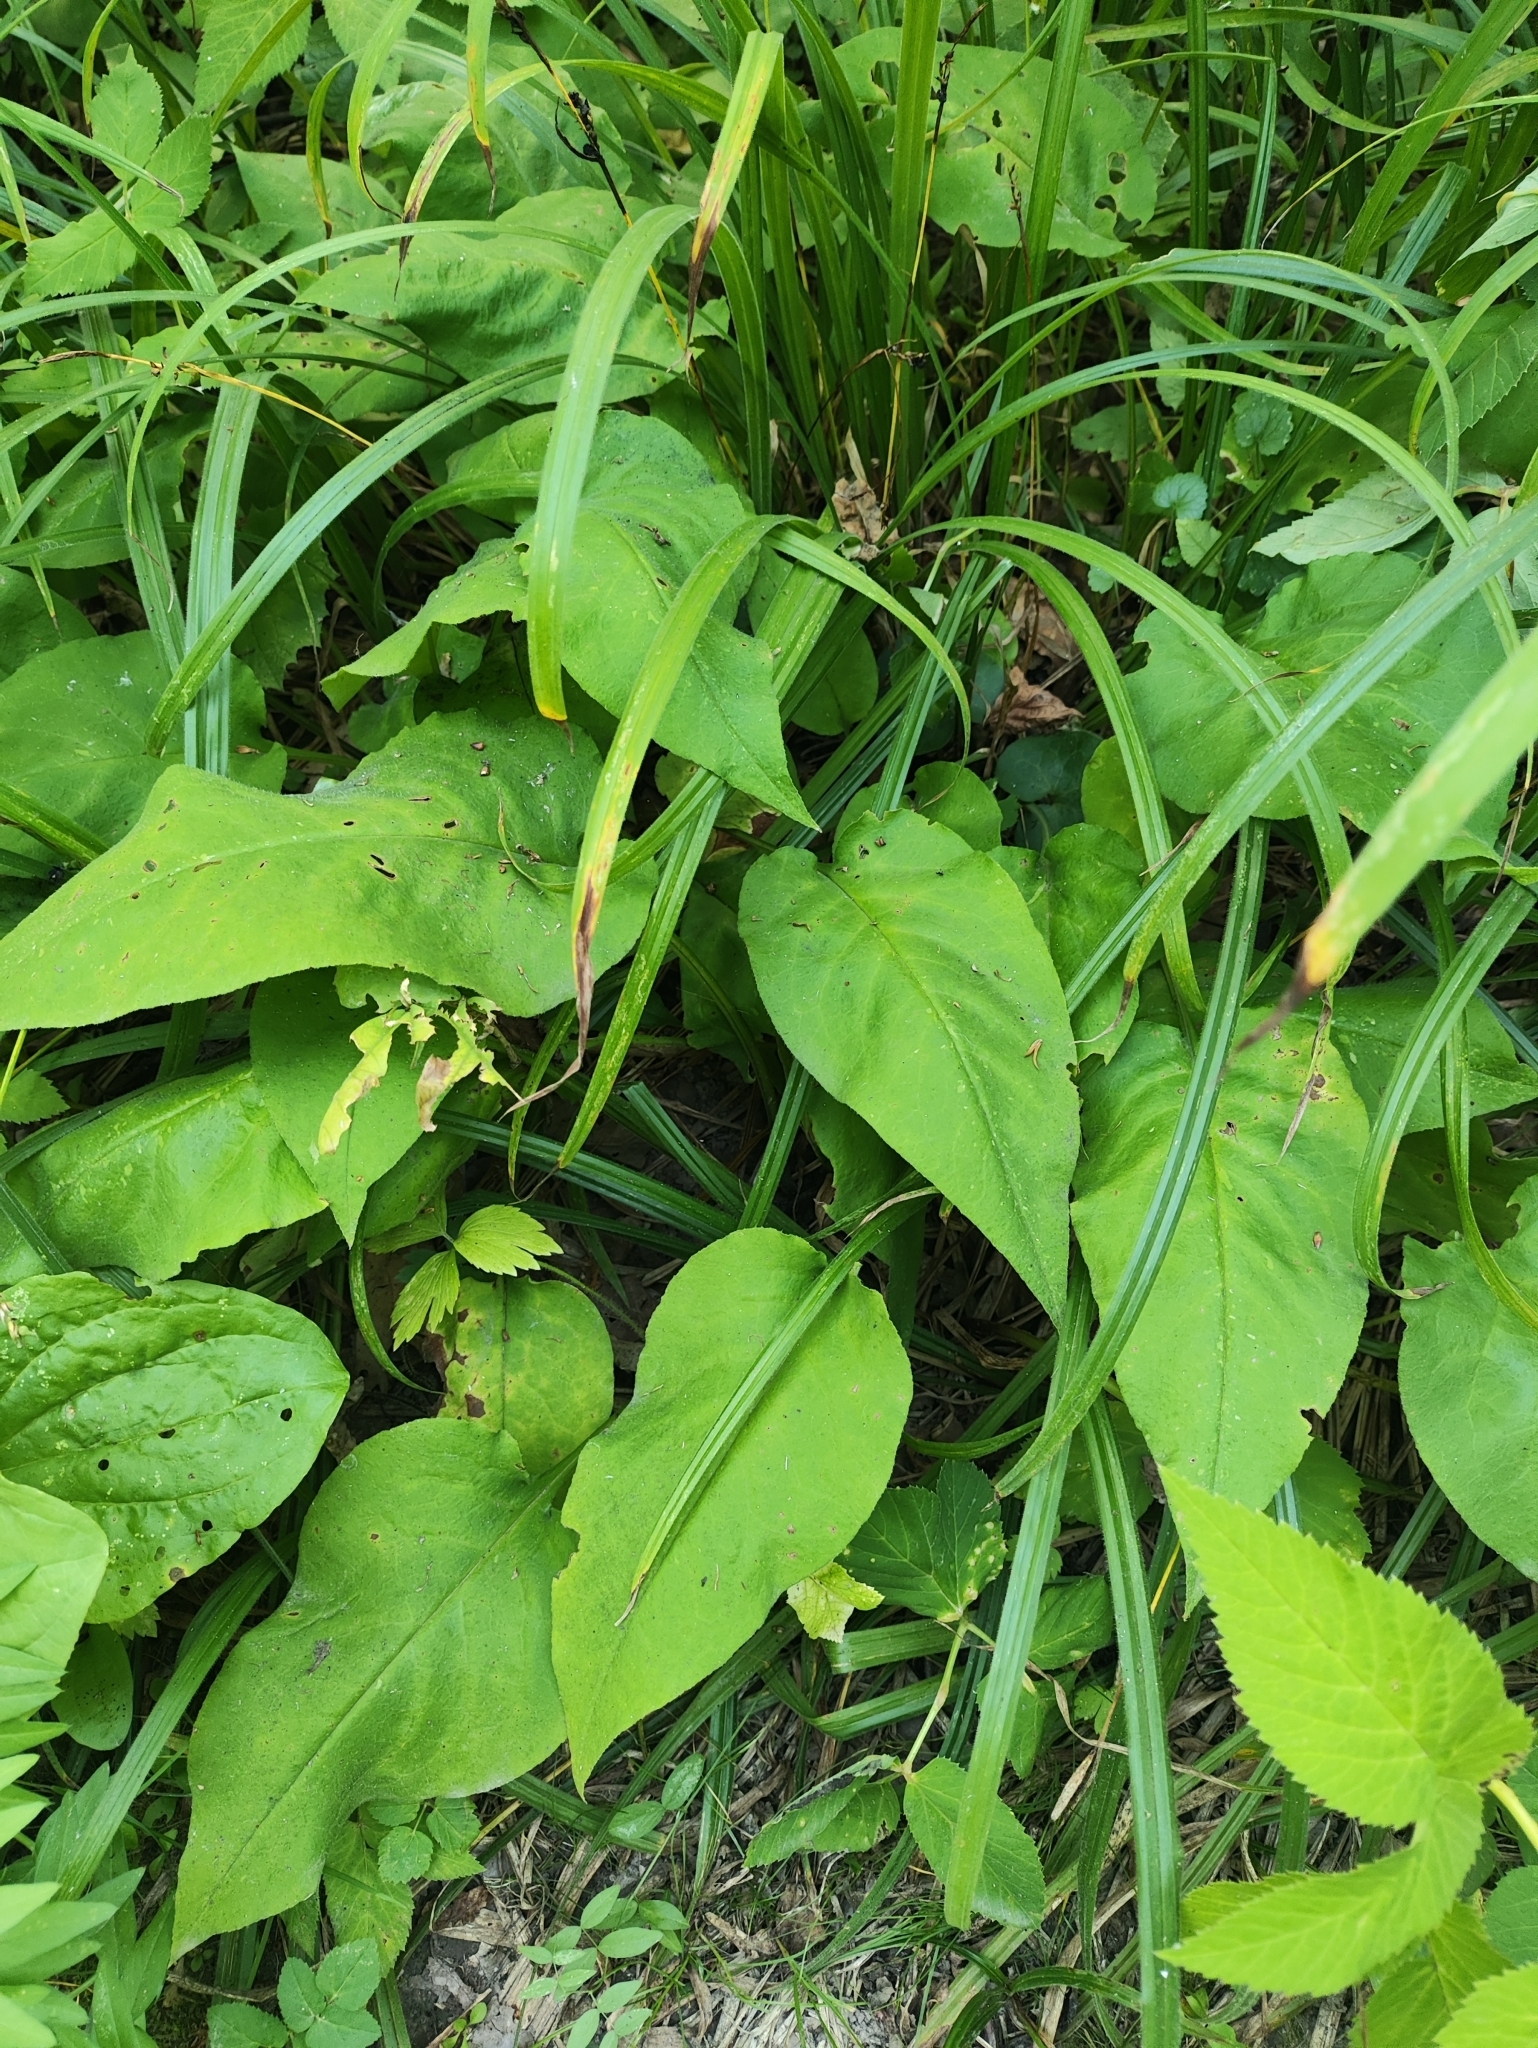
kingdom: Plantae
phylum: Tracheophyta
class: Magnoliopsida
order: Boraginales
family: Boraginaceae
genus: Pulmonaria
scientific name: Pulmonaria obscura
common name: Suffolk lungwort
